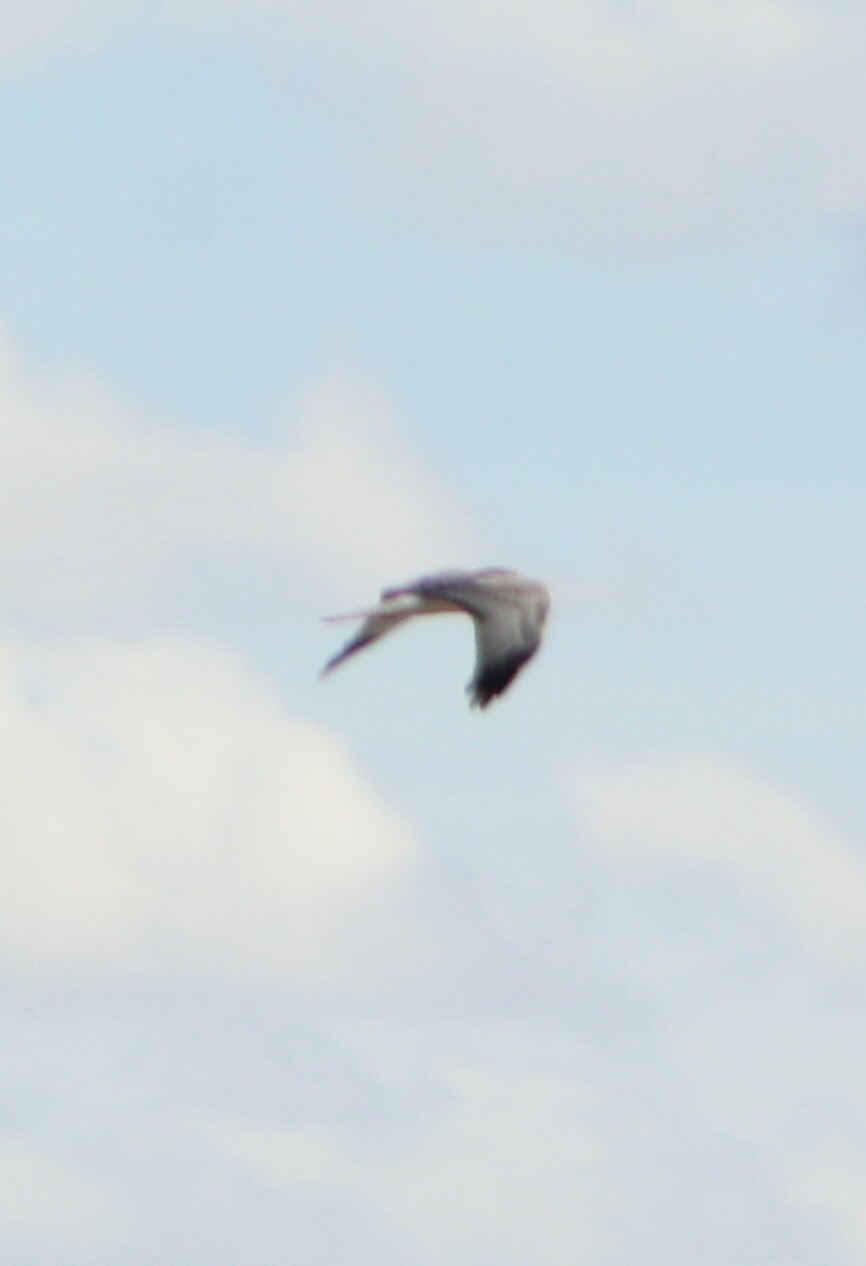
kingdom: Animalia
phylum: Chordata
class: Aves
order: Accipitriformes
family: Accipitridae
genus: Circus
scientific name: Circus cyaneus
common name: Hen harrier
